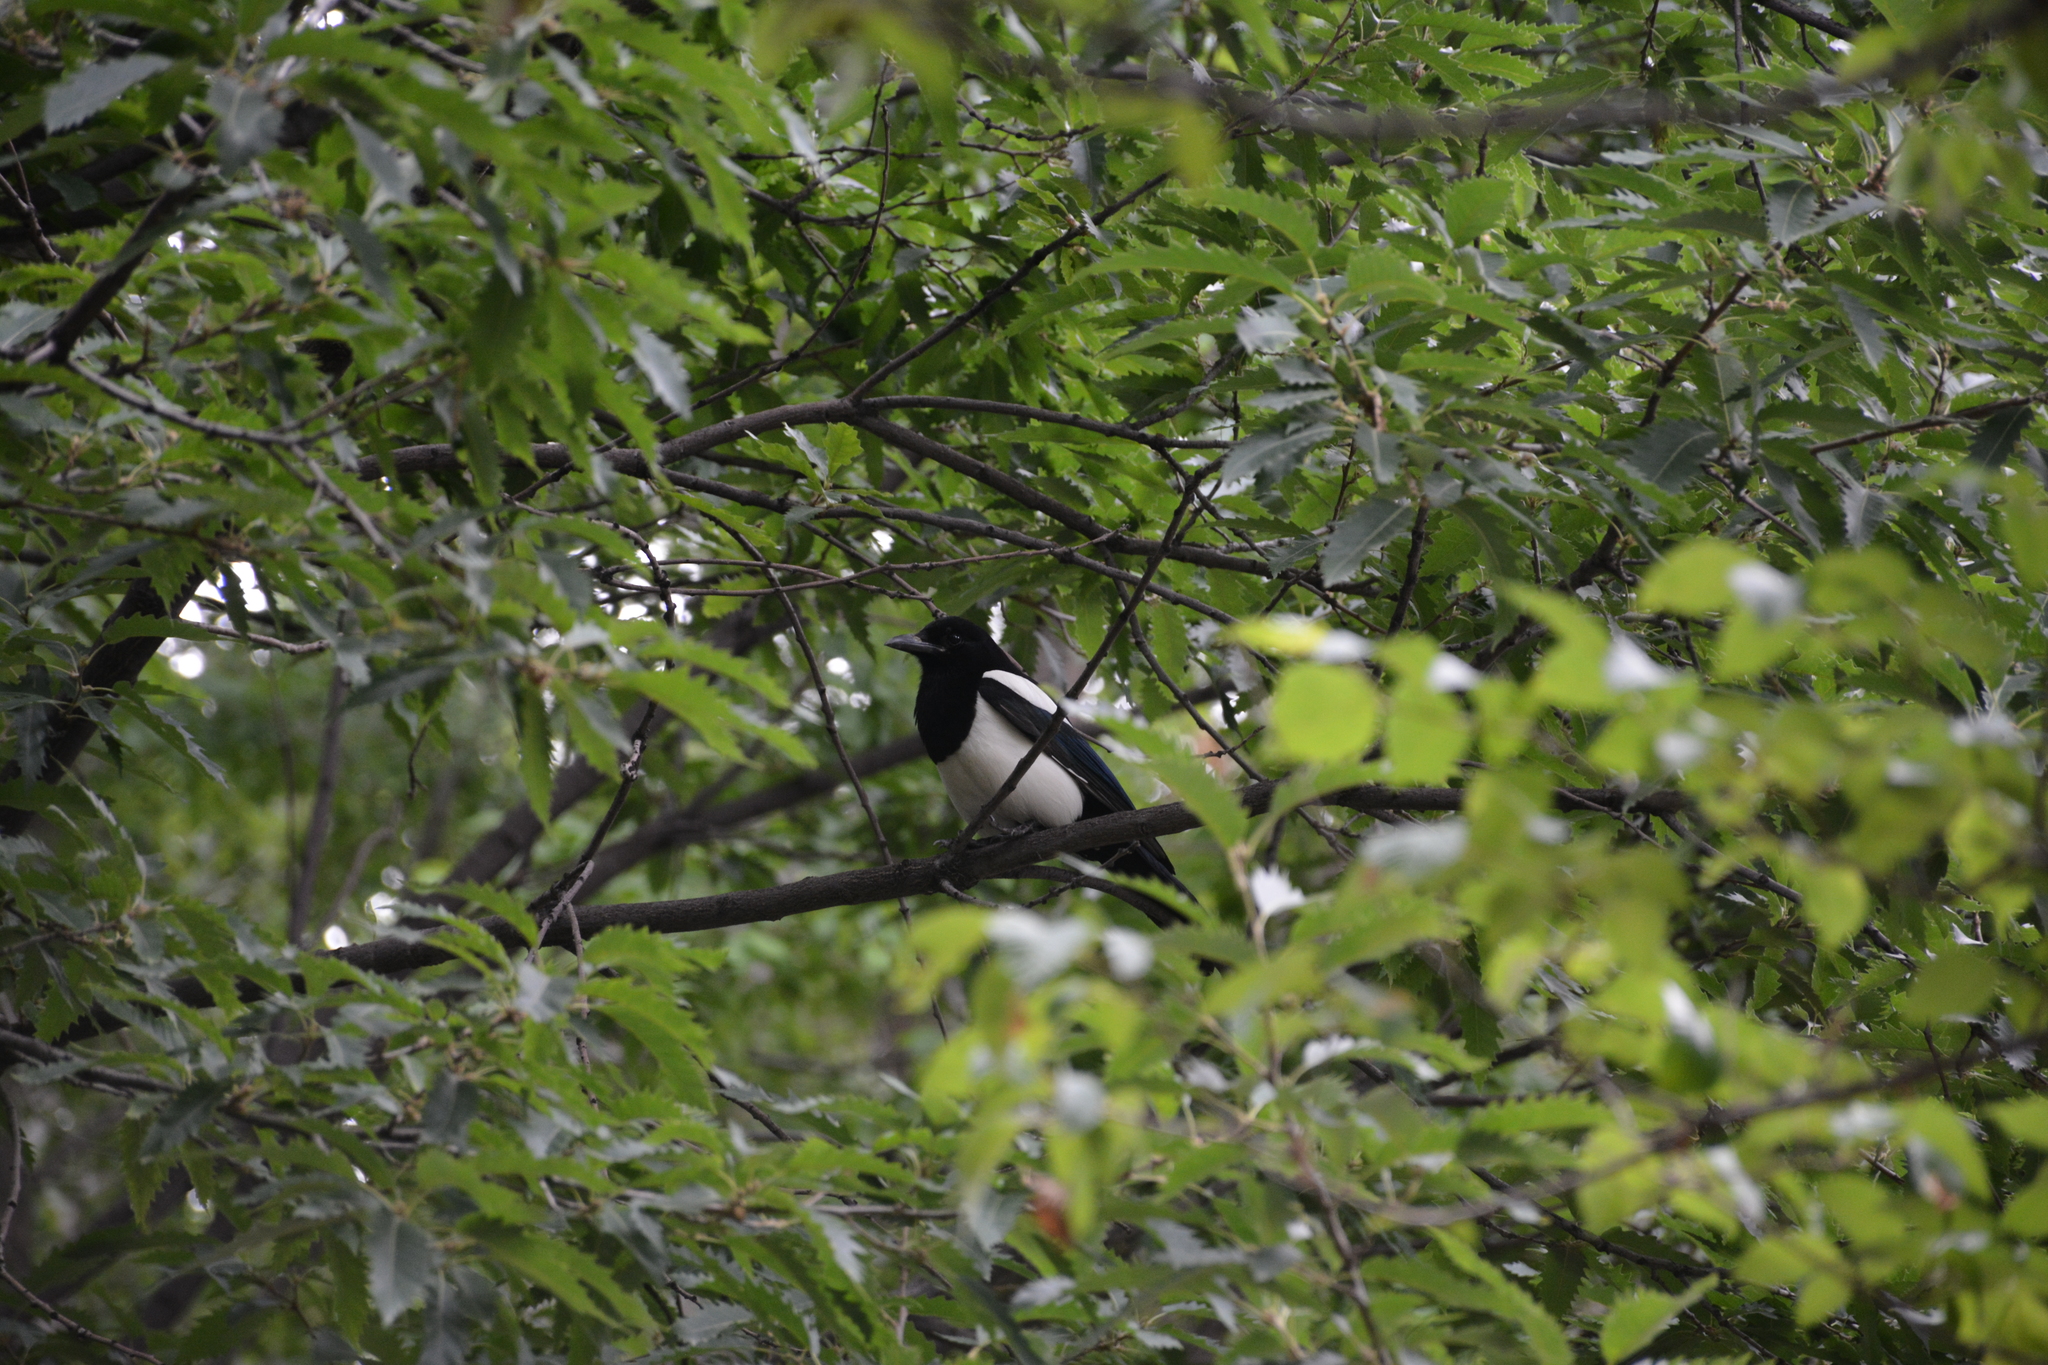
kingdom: Animalia
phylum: Chordata
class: Aves
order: Passeriformes
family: Corvidae
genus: Pica
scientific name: Pica pica
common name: Eurasian magpie
